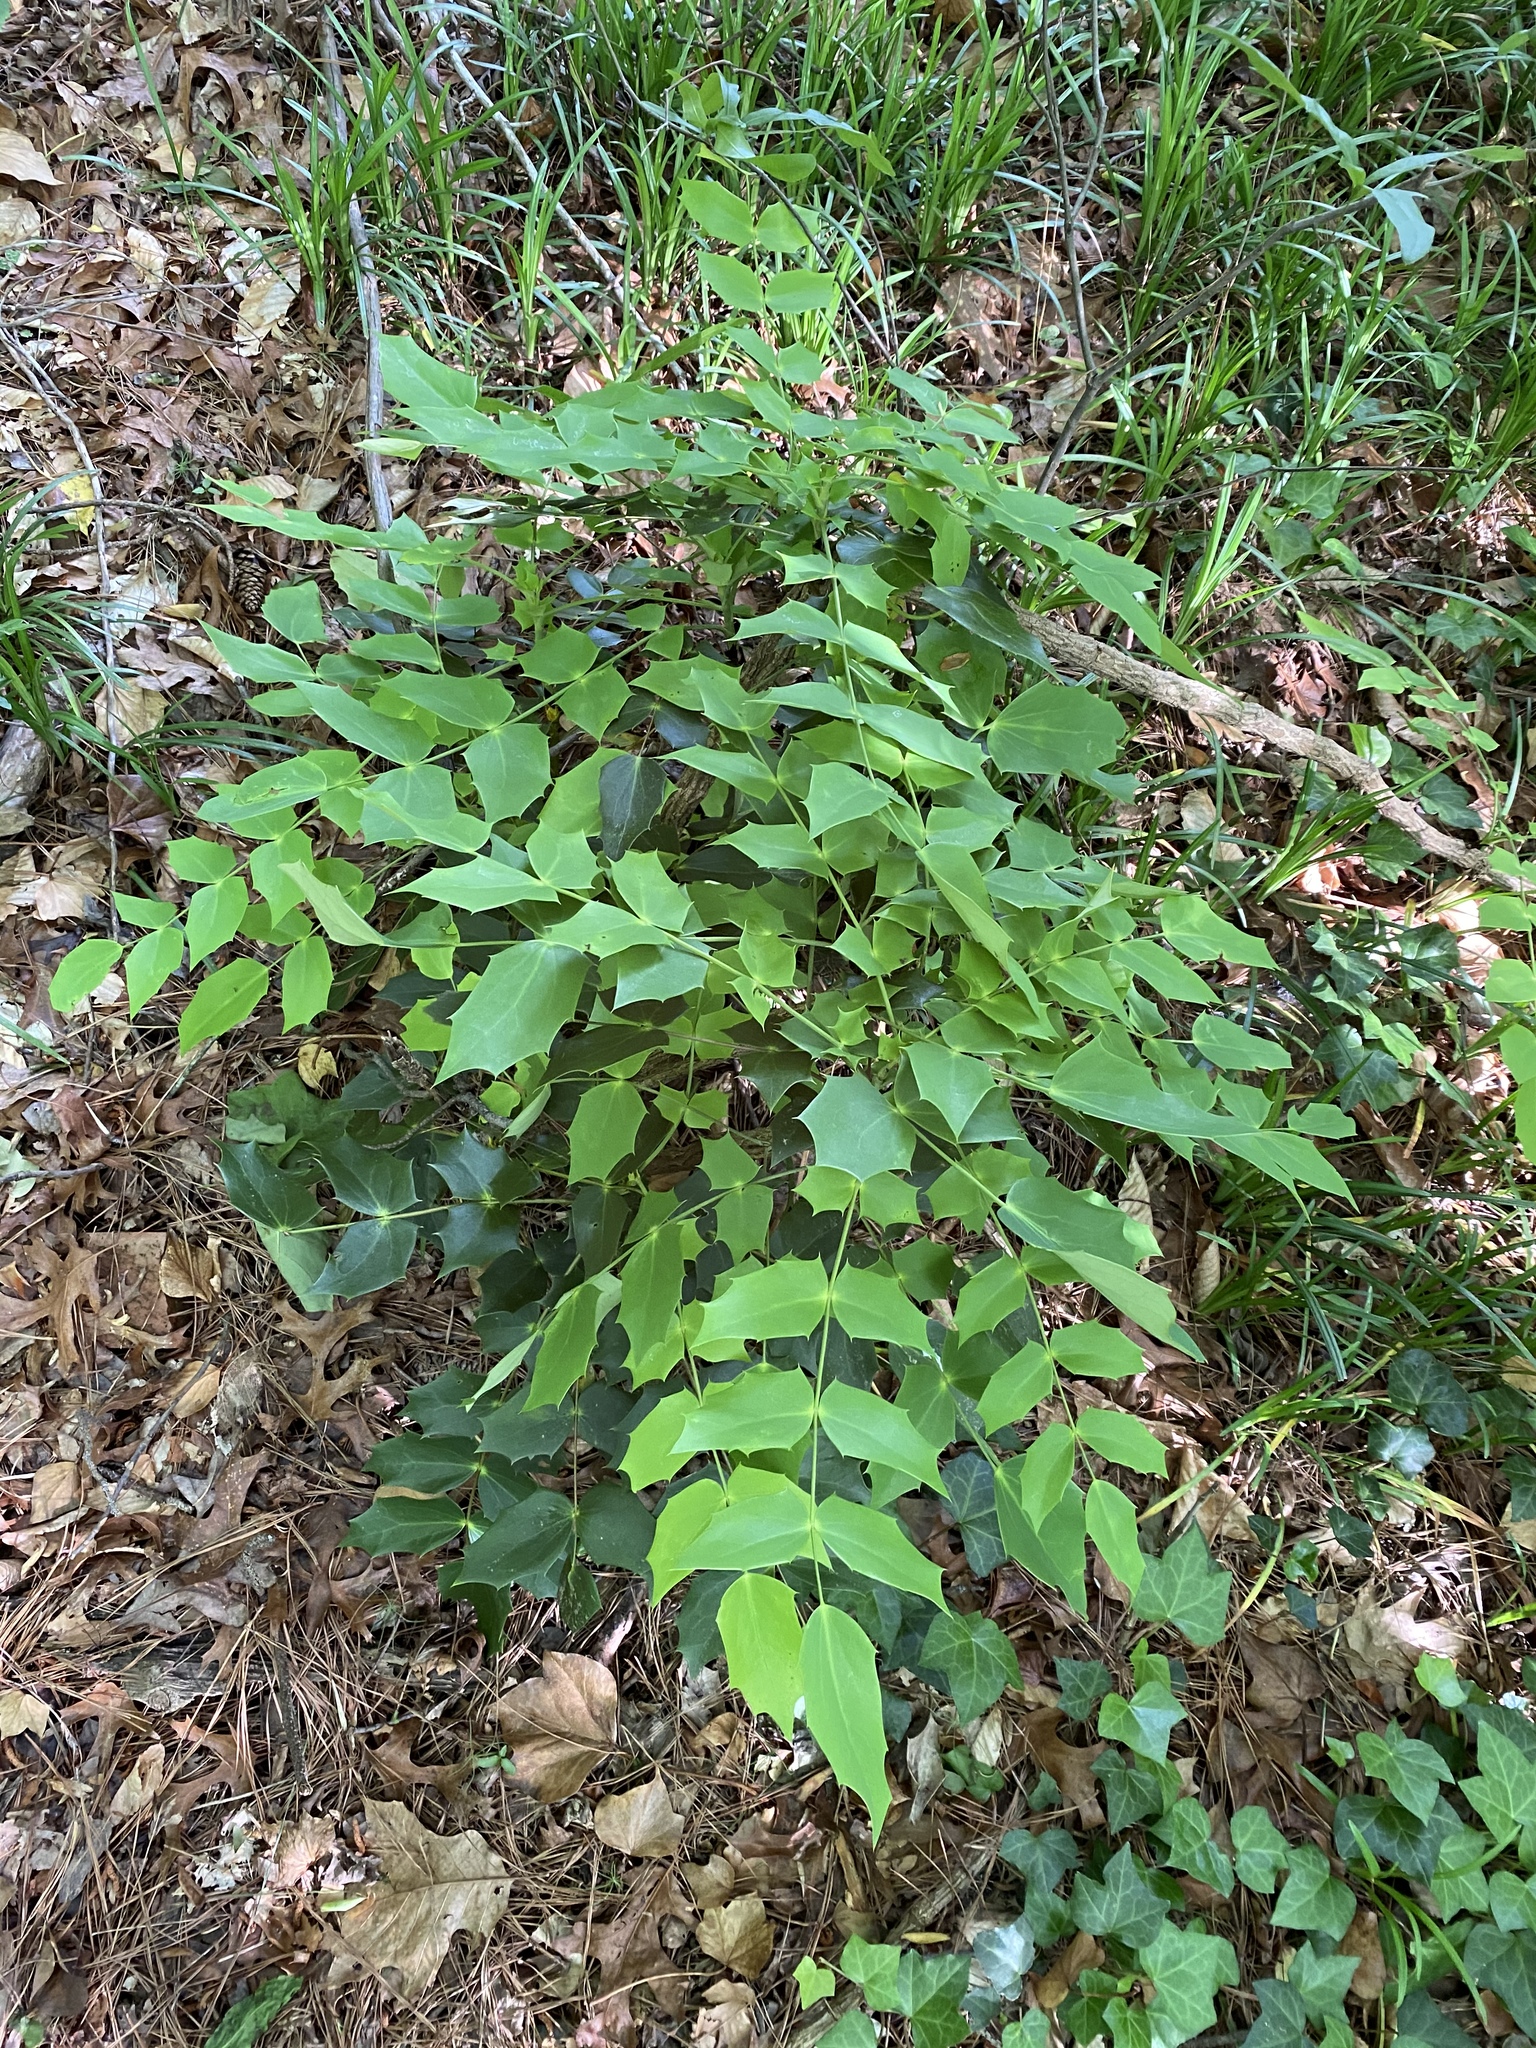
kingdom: Plantae
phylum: Tracheophyta
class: Magnoliopsida
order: Ranunculales
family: Berberidaceae
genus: Mahonia
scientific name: Mahonia bealei
